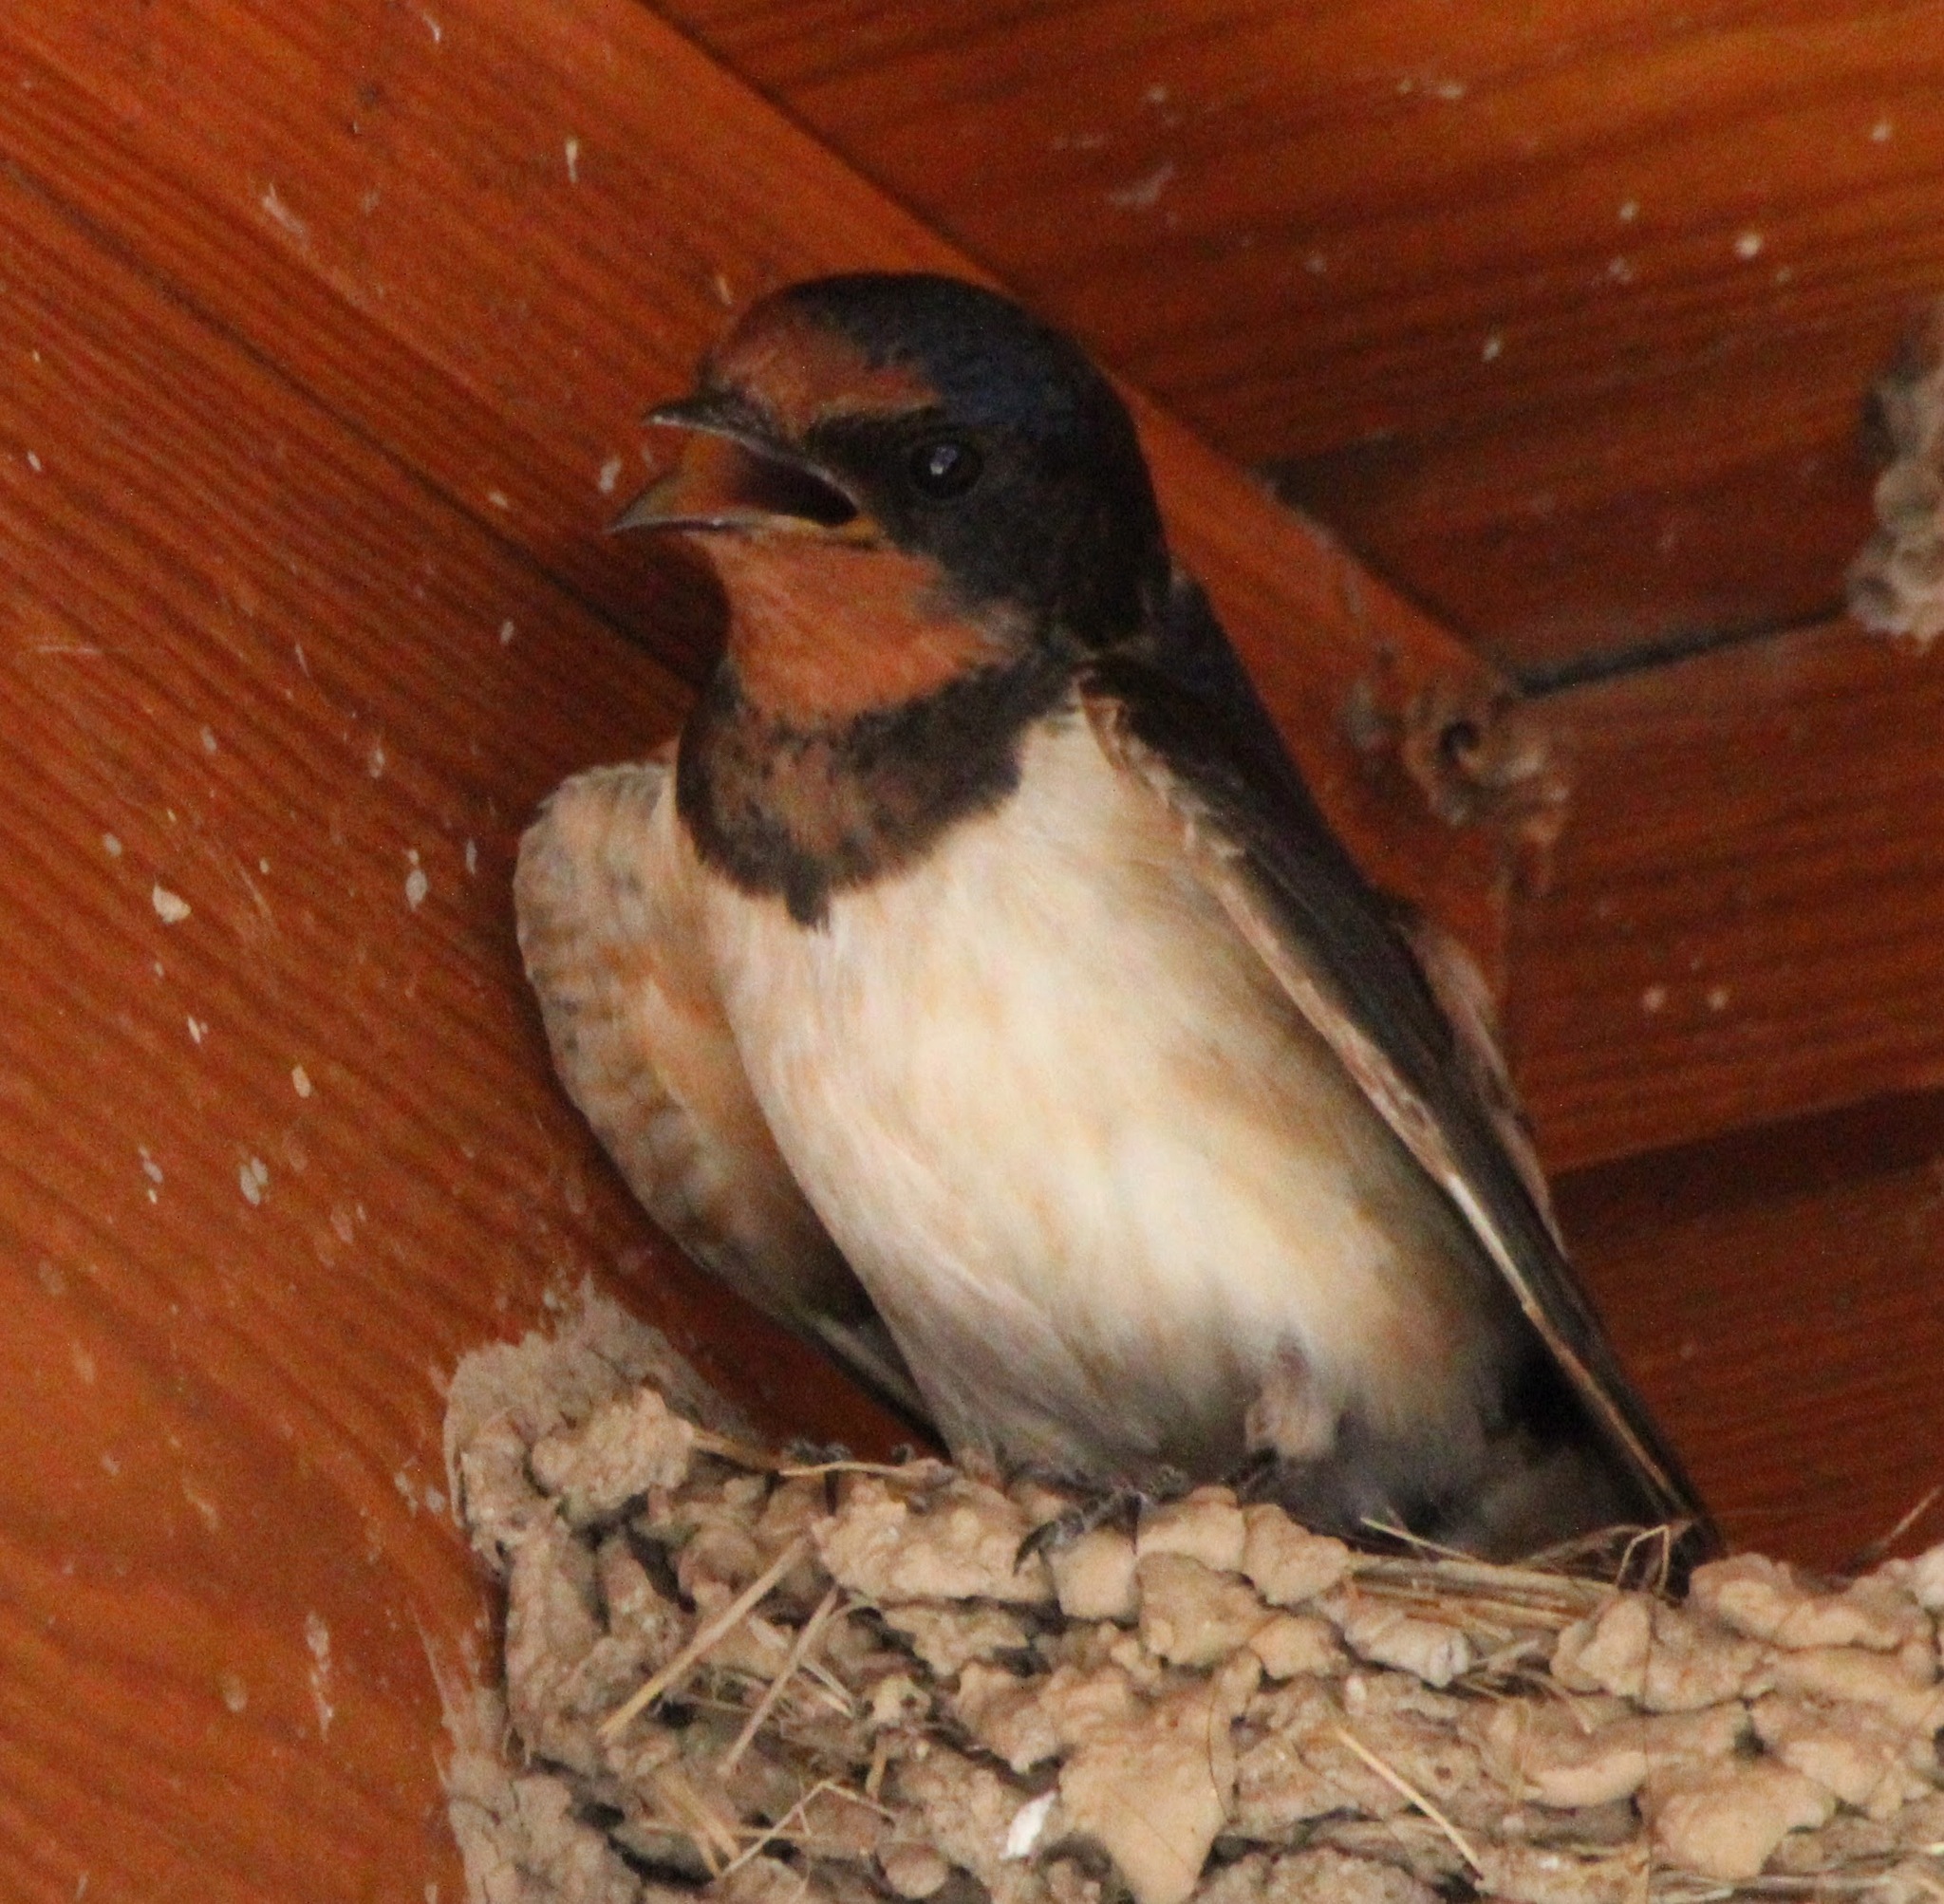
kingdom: Animalia
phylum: Chordata
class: Aves
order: Passeriformes
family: Hirundinidae
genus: Hirundo
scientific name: Hirundo rustica
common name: Barn swallow
